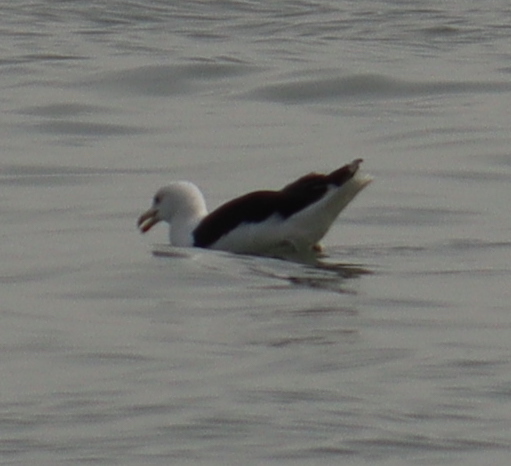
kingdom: Animalia
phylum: Chordata
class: Aves
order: Charadriiformes
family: Laridae
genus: Larus
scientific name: Larus marinus
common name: Great black-backed gull
